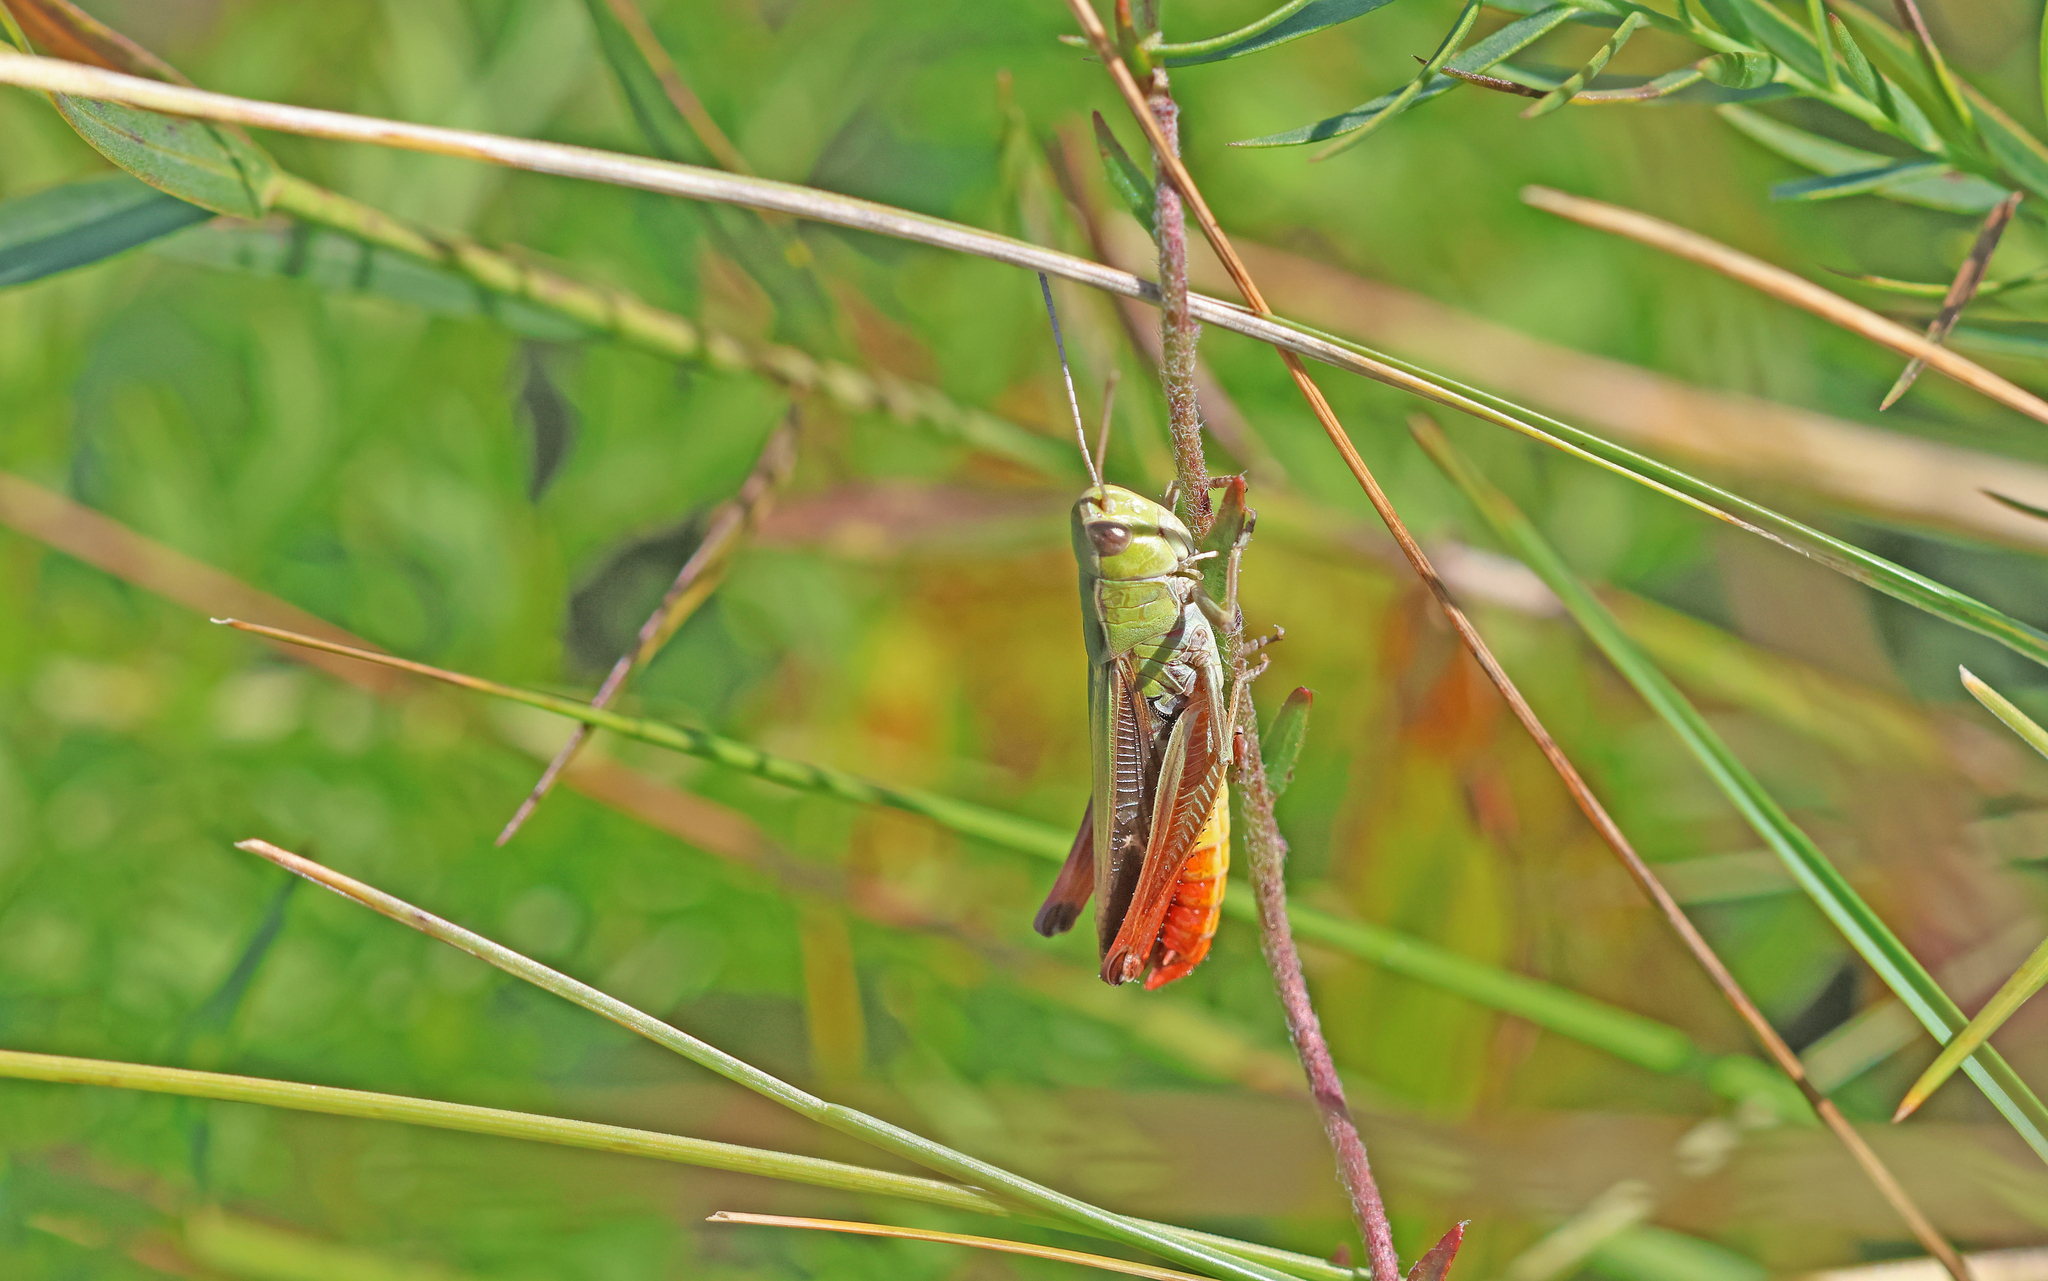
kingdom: Animalia
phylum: Arthropoda
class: Insecta
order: Orthoptera
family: Acrididae
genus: Stenobothrus
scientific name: Stenobothrus lineatus
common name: Stripe-winged grasshopper
